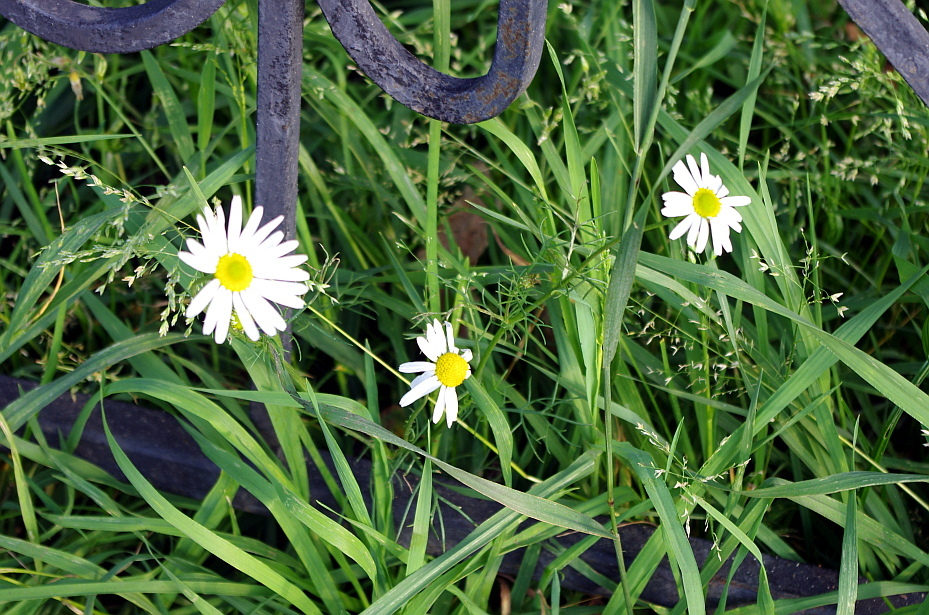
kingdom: Plantae
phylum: Tracheophyta
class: Magnoliopsida
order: Asterales
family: Asteraceae
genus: Tripleurospermum
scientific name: Tripleurospermum inodorum
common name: Scentless mayweed
